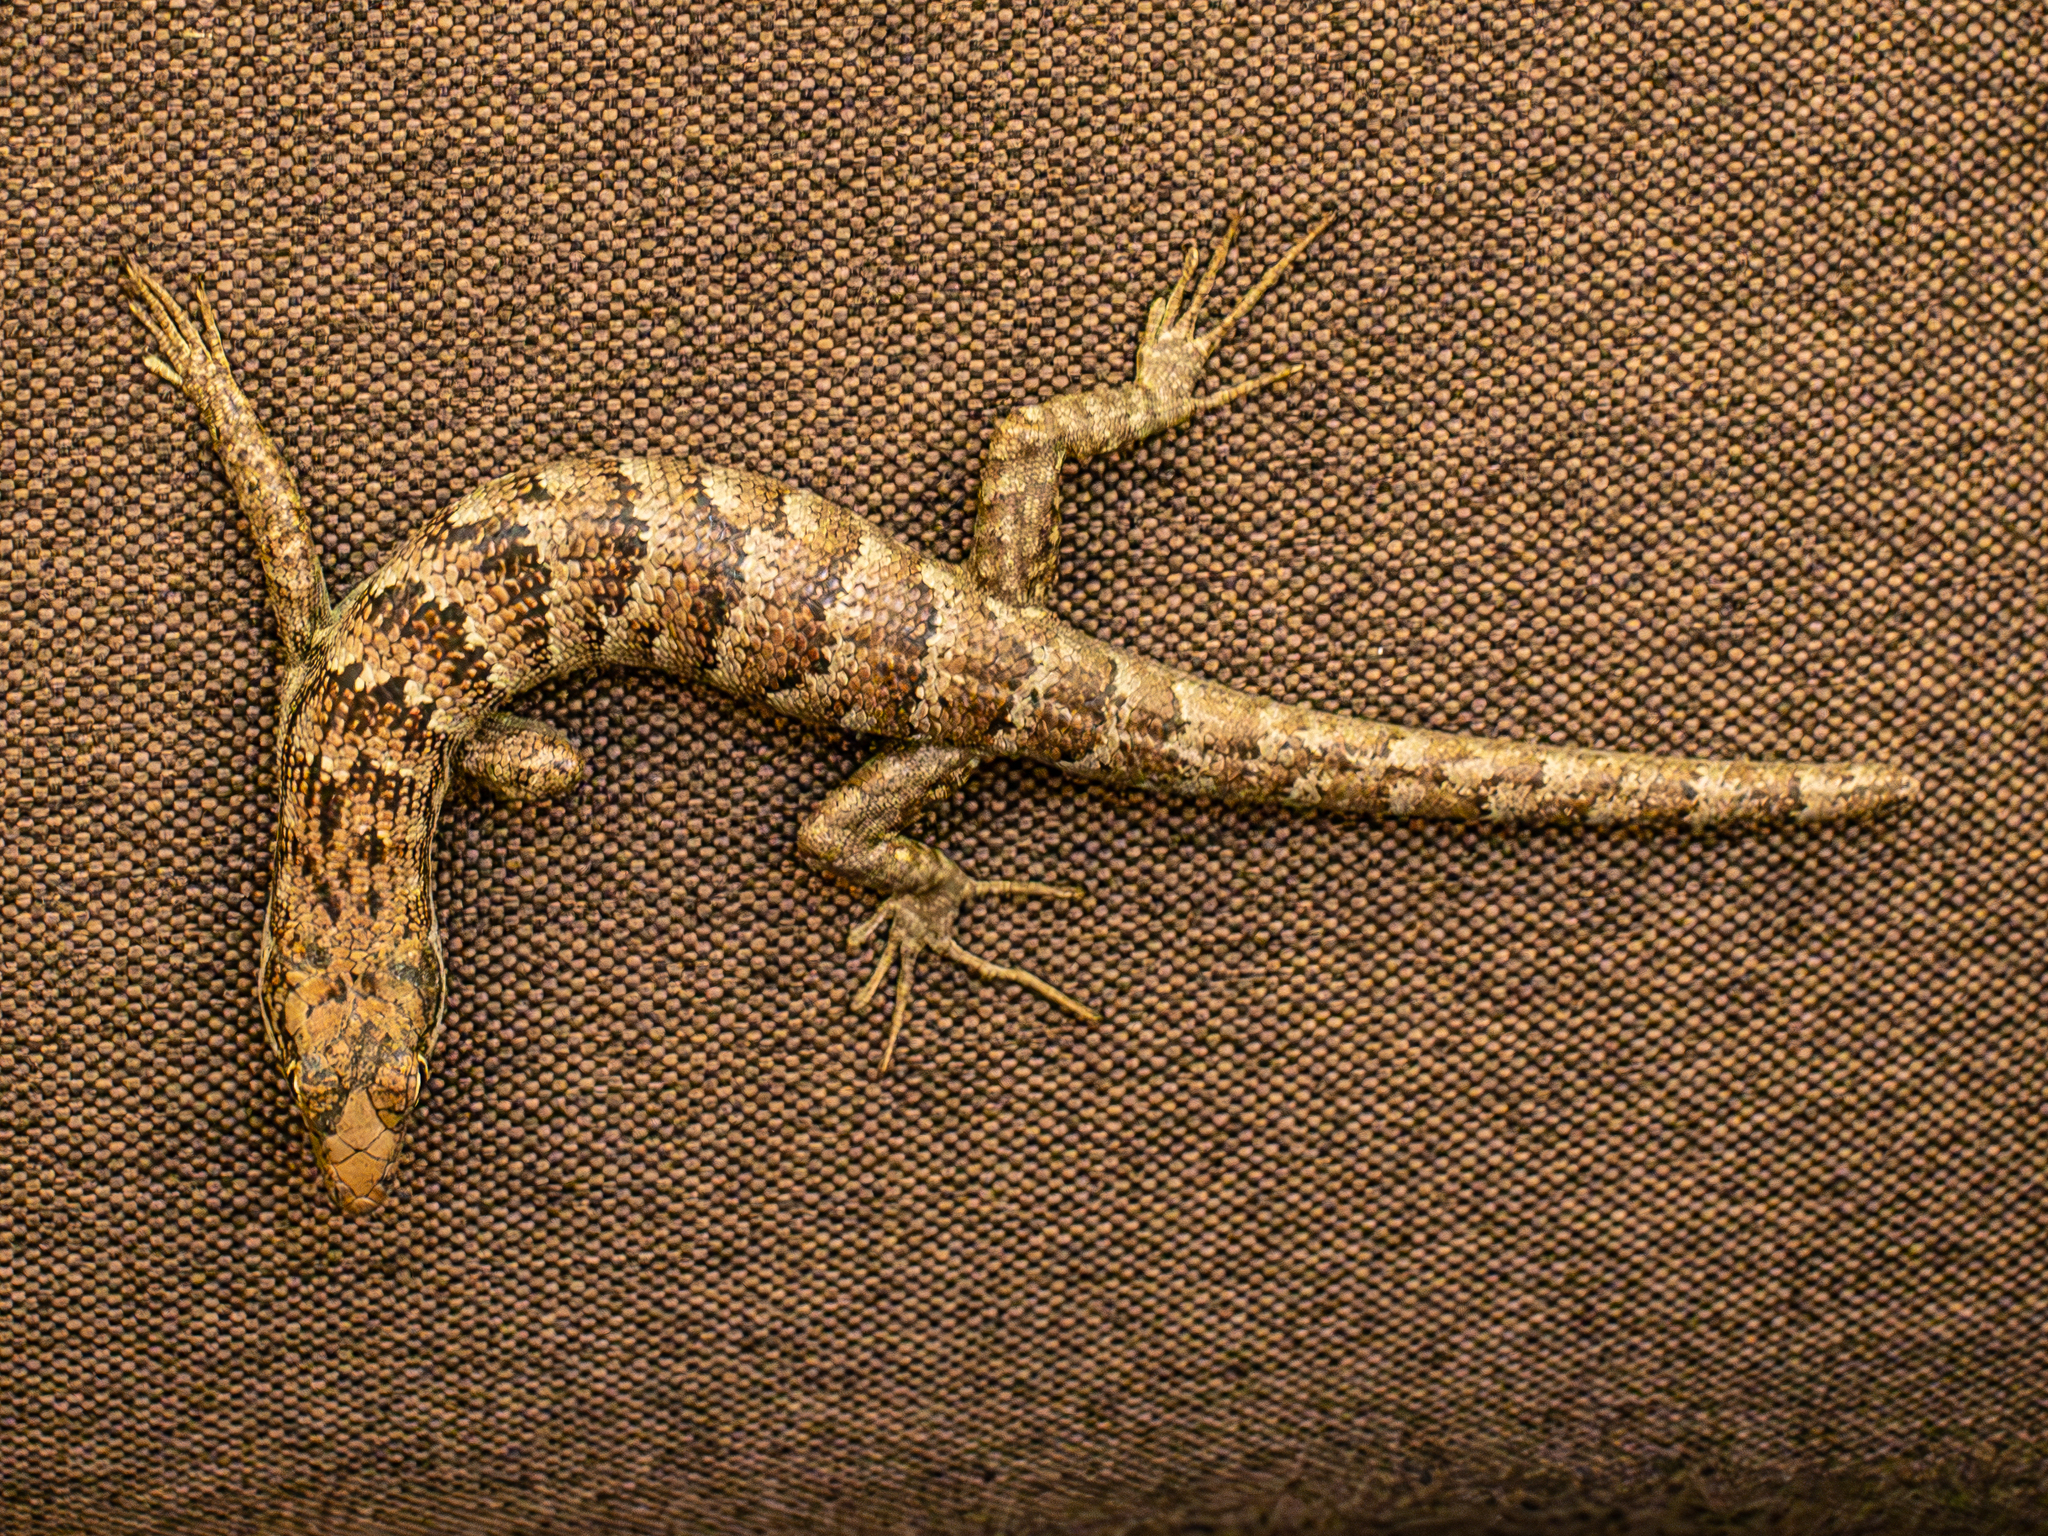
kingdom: Animalia
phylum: Chordata
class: Squamata
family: Scincidae
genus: Phoboscincus
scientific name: Phoboscincus garnieri
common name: Garnier's giant skink
